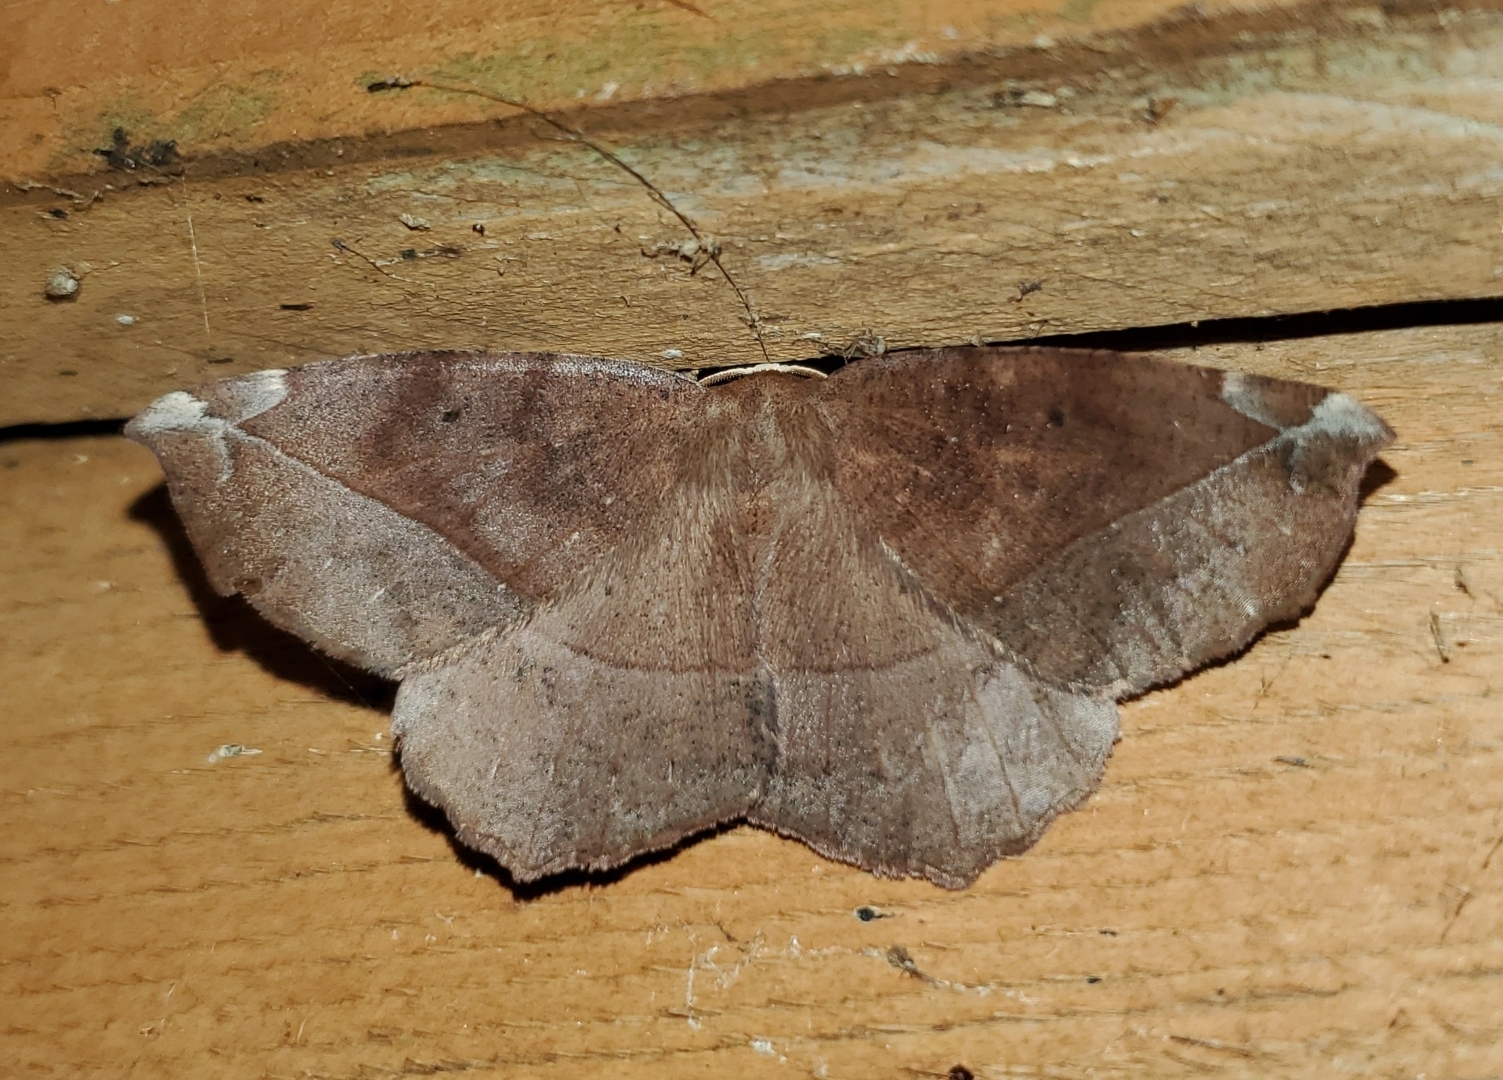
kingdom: Animalia
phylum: Arthropoda
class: Insecta
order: Lepidoptera
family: Geometridae
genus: Eutrapela
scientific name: Eutrapela clemataria
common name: Curved-toothed geometer
